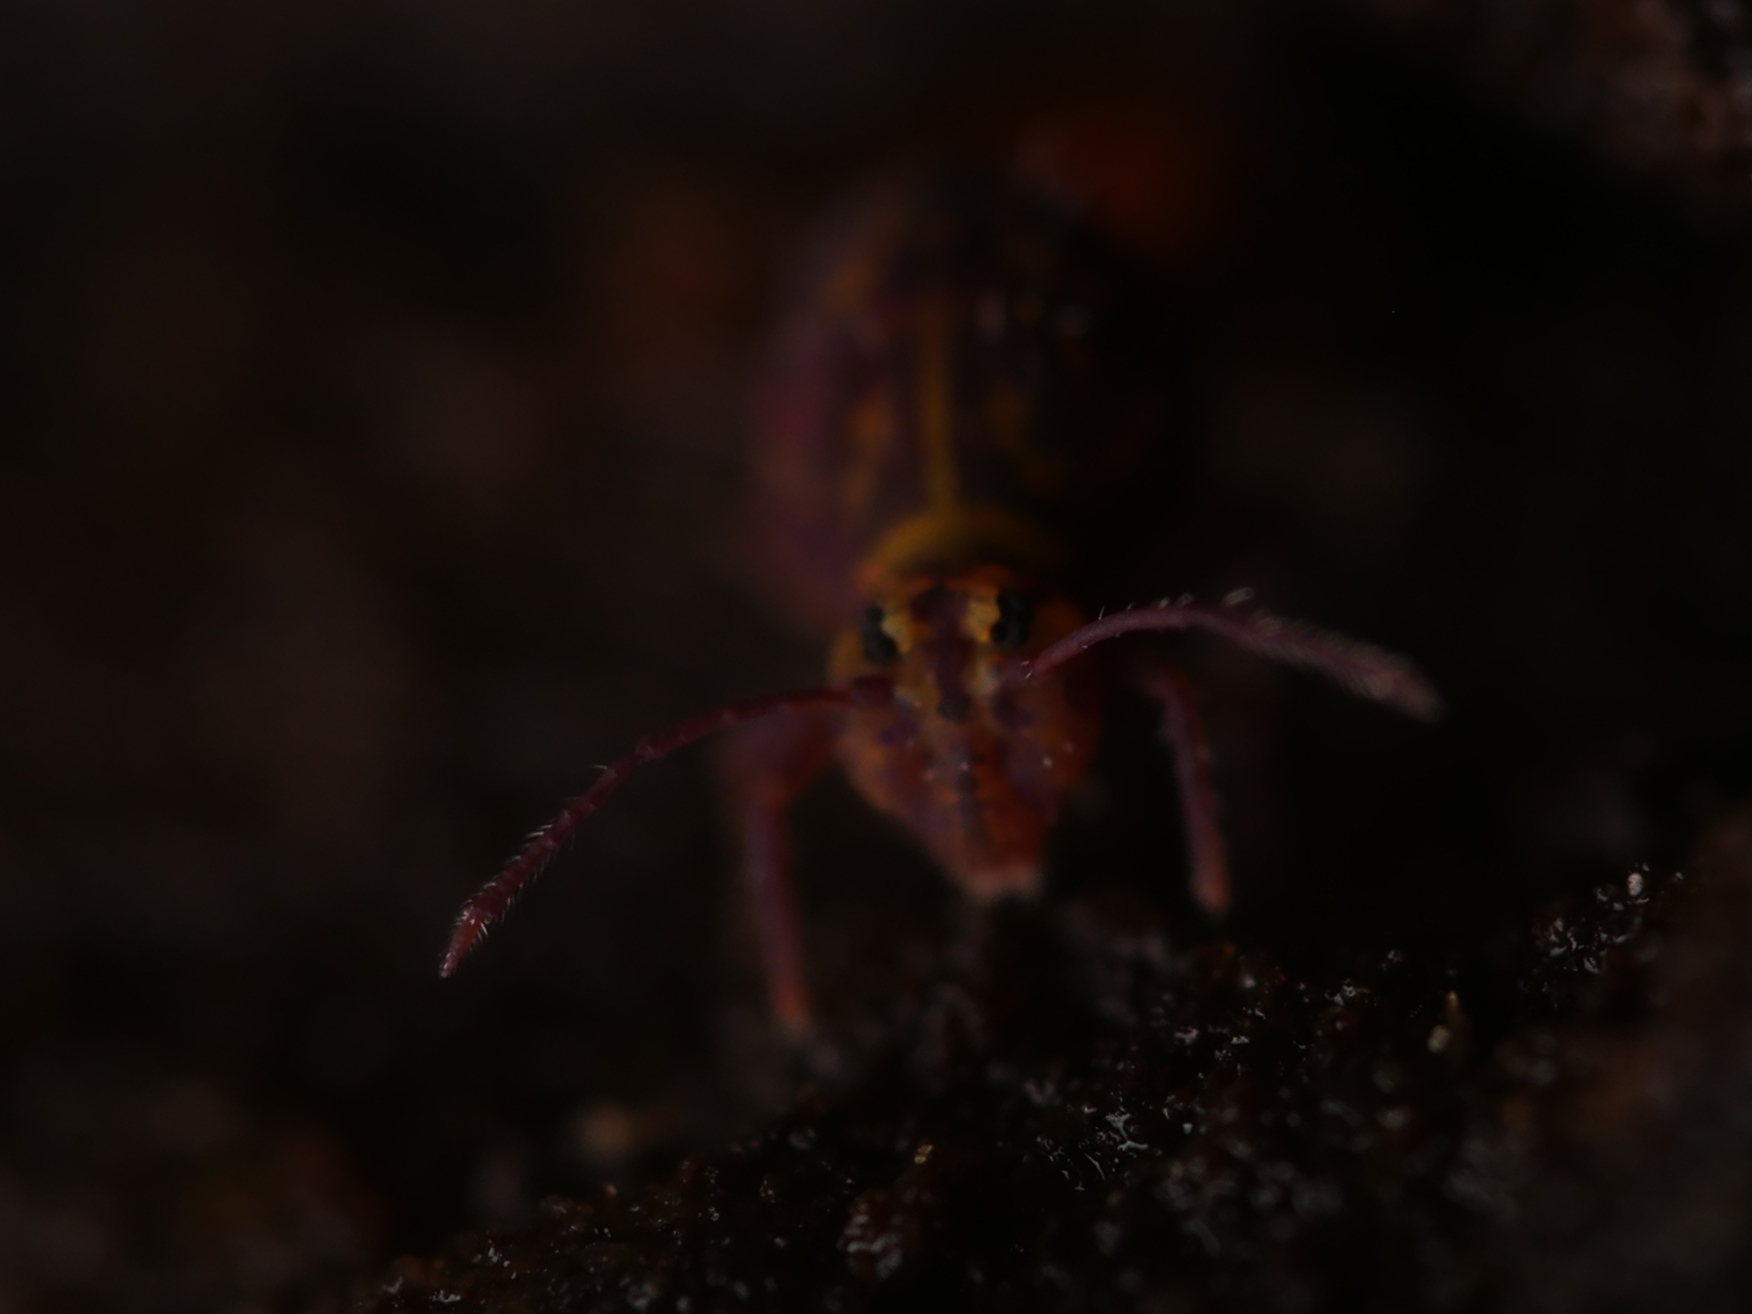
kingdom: Animalia
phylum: Arthropoda
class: Collembola
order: Symphypleona
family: Dicyrtomidae
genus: Dicyrtomina
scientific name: Dicyrtomina ornata
